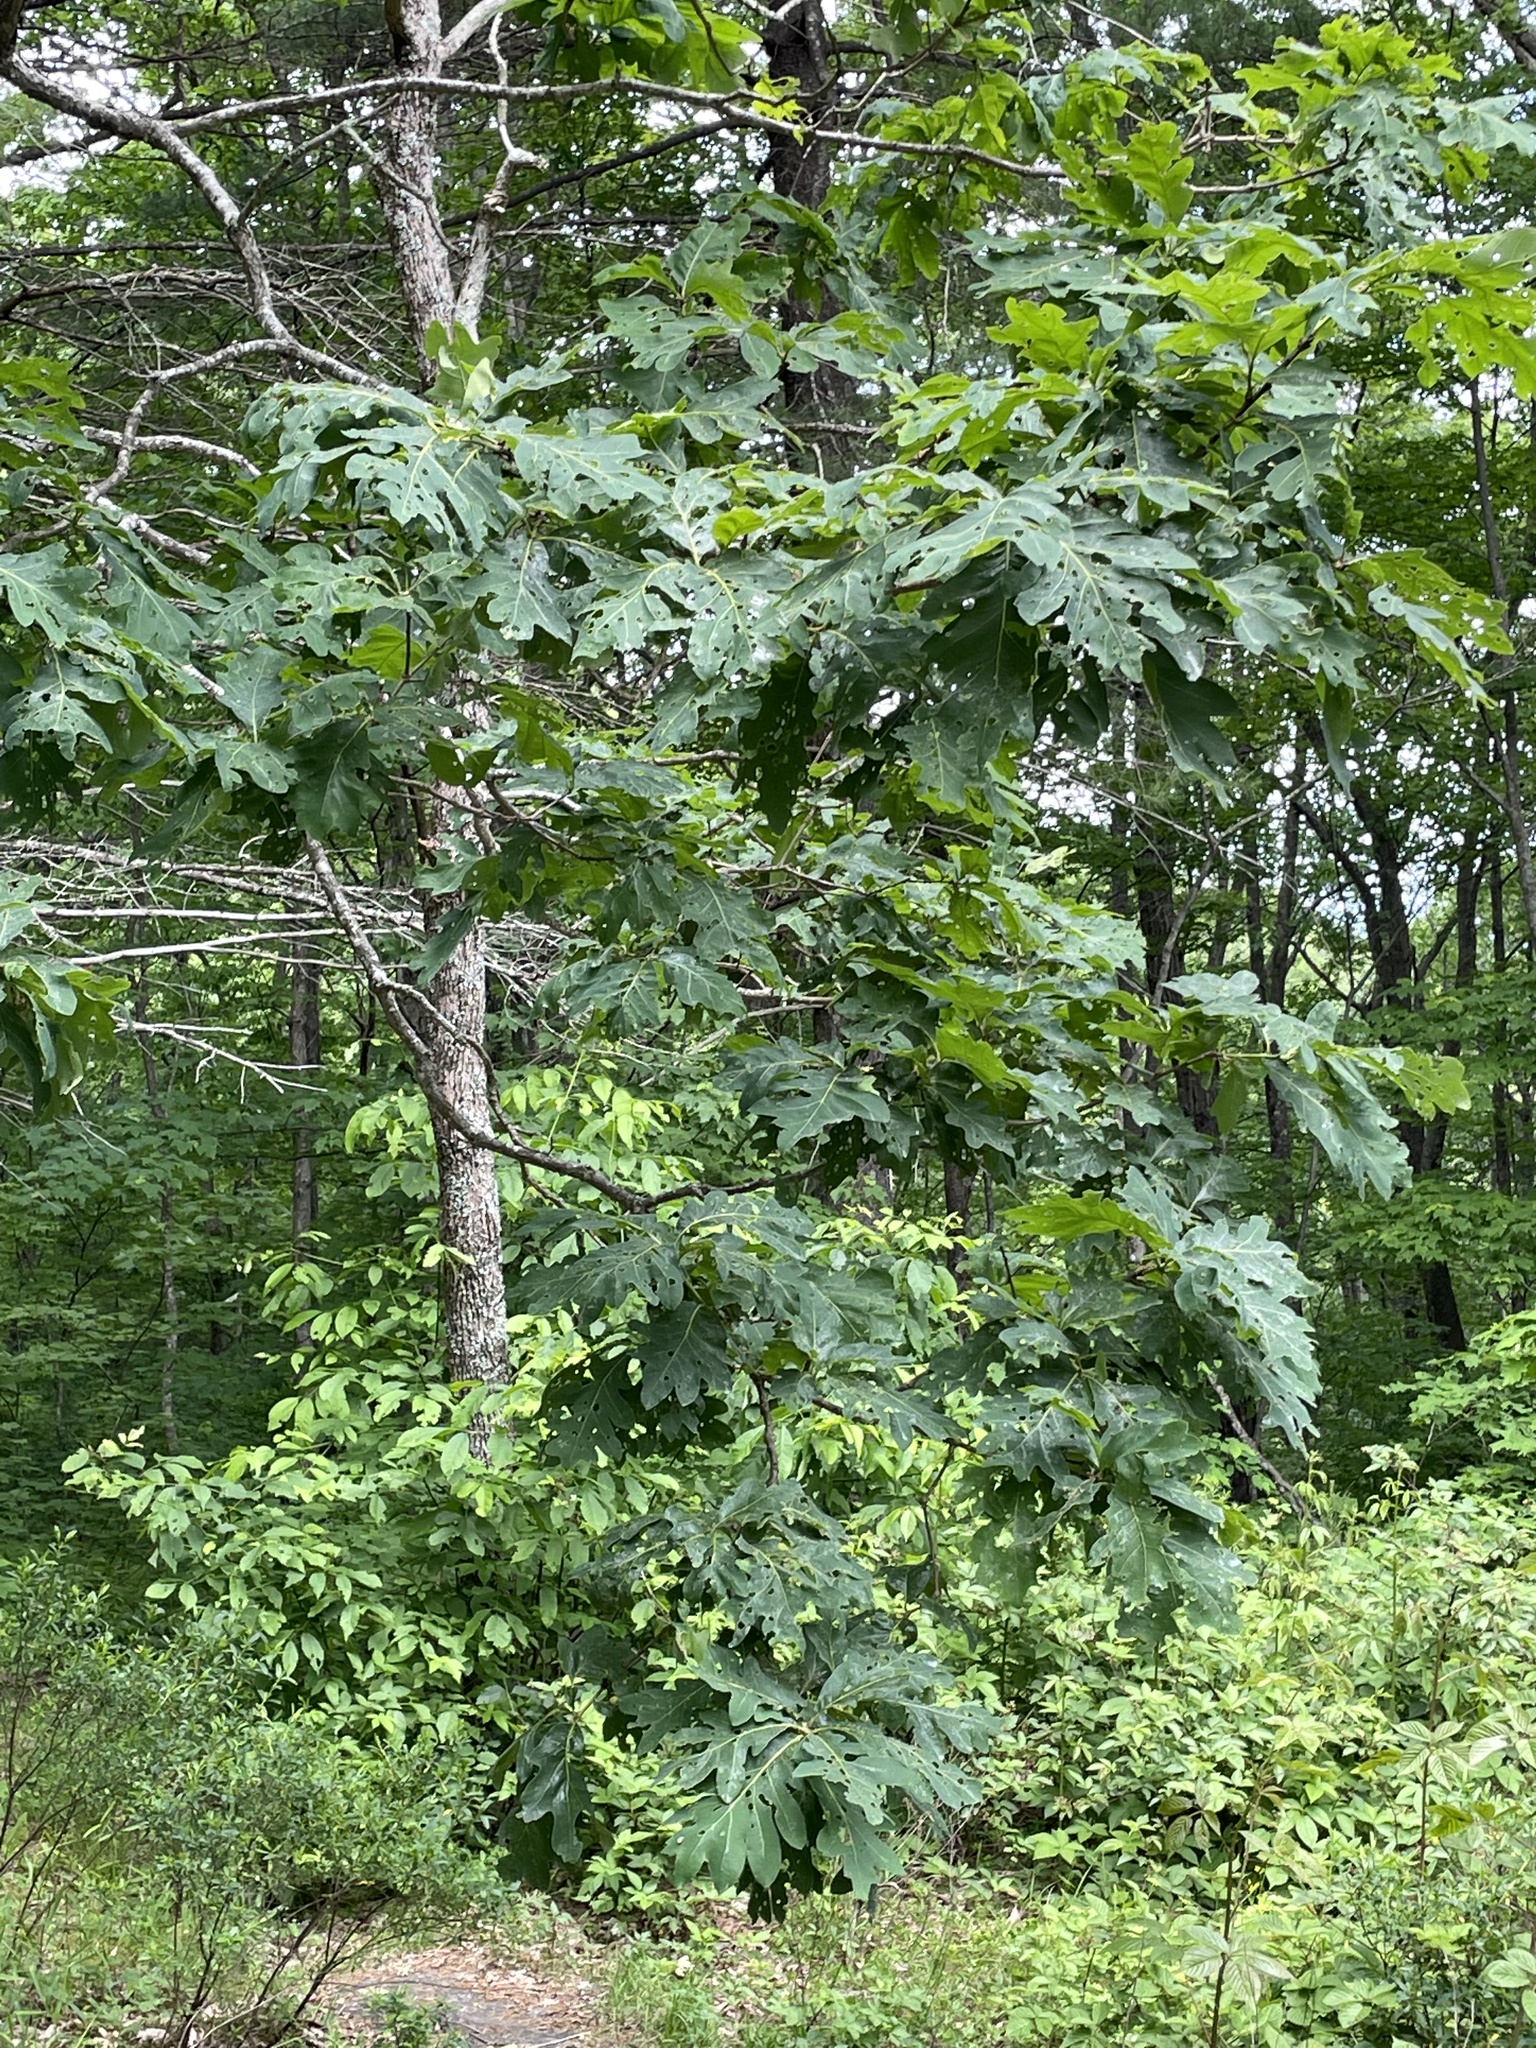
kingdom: Plantae
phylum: Tracheophyta
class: Magnoliopsida
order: Fagales
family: Fagaceae
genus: Quercus
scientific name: Quercus alba
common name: White oak
